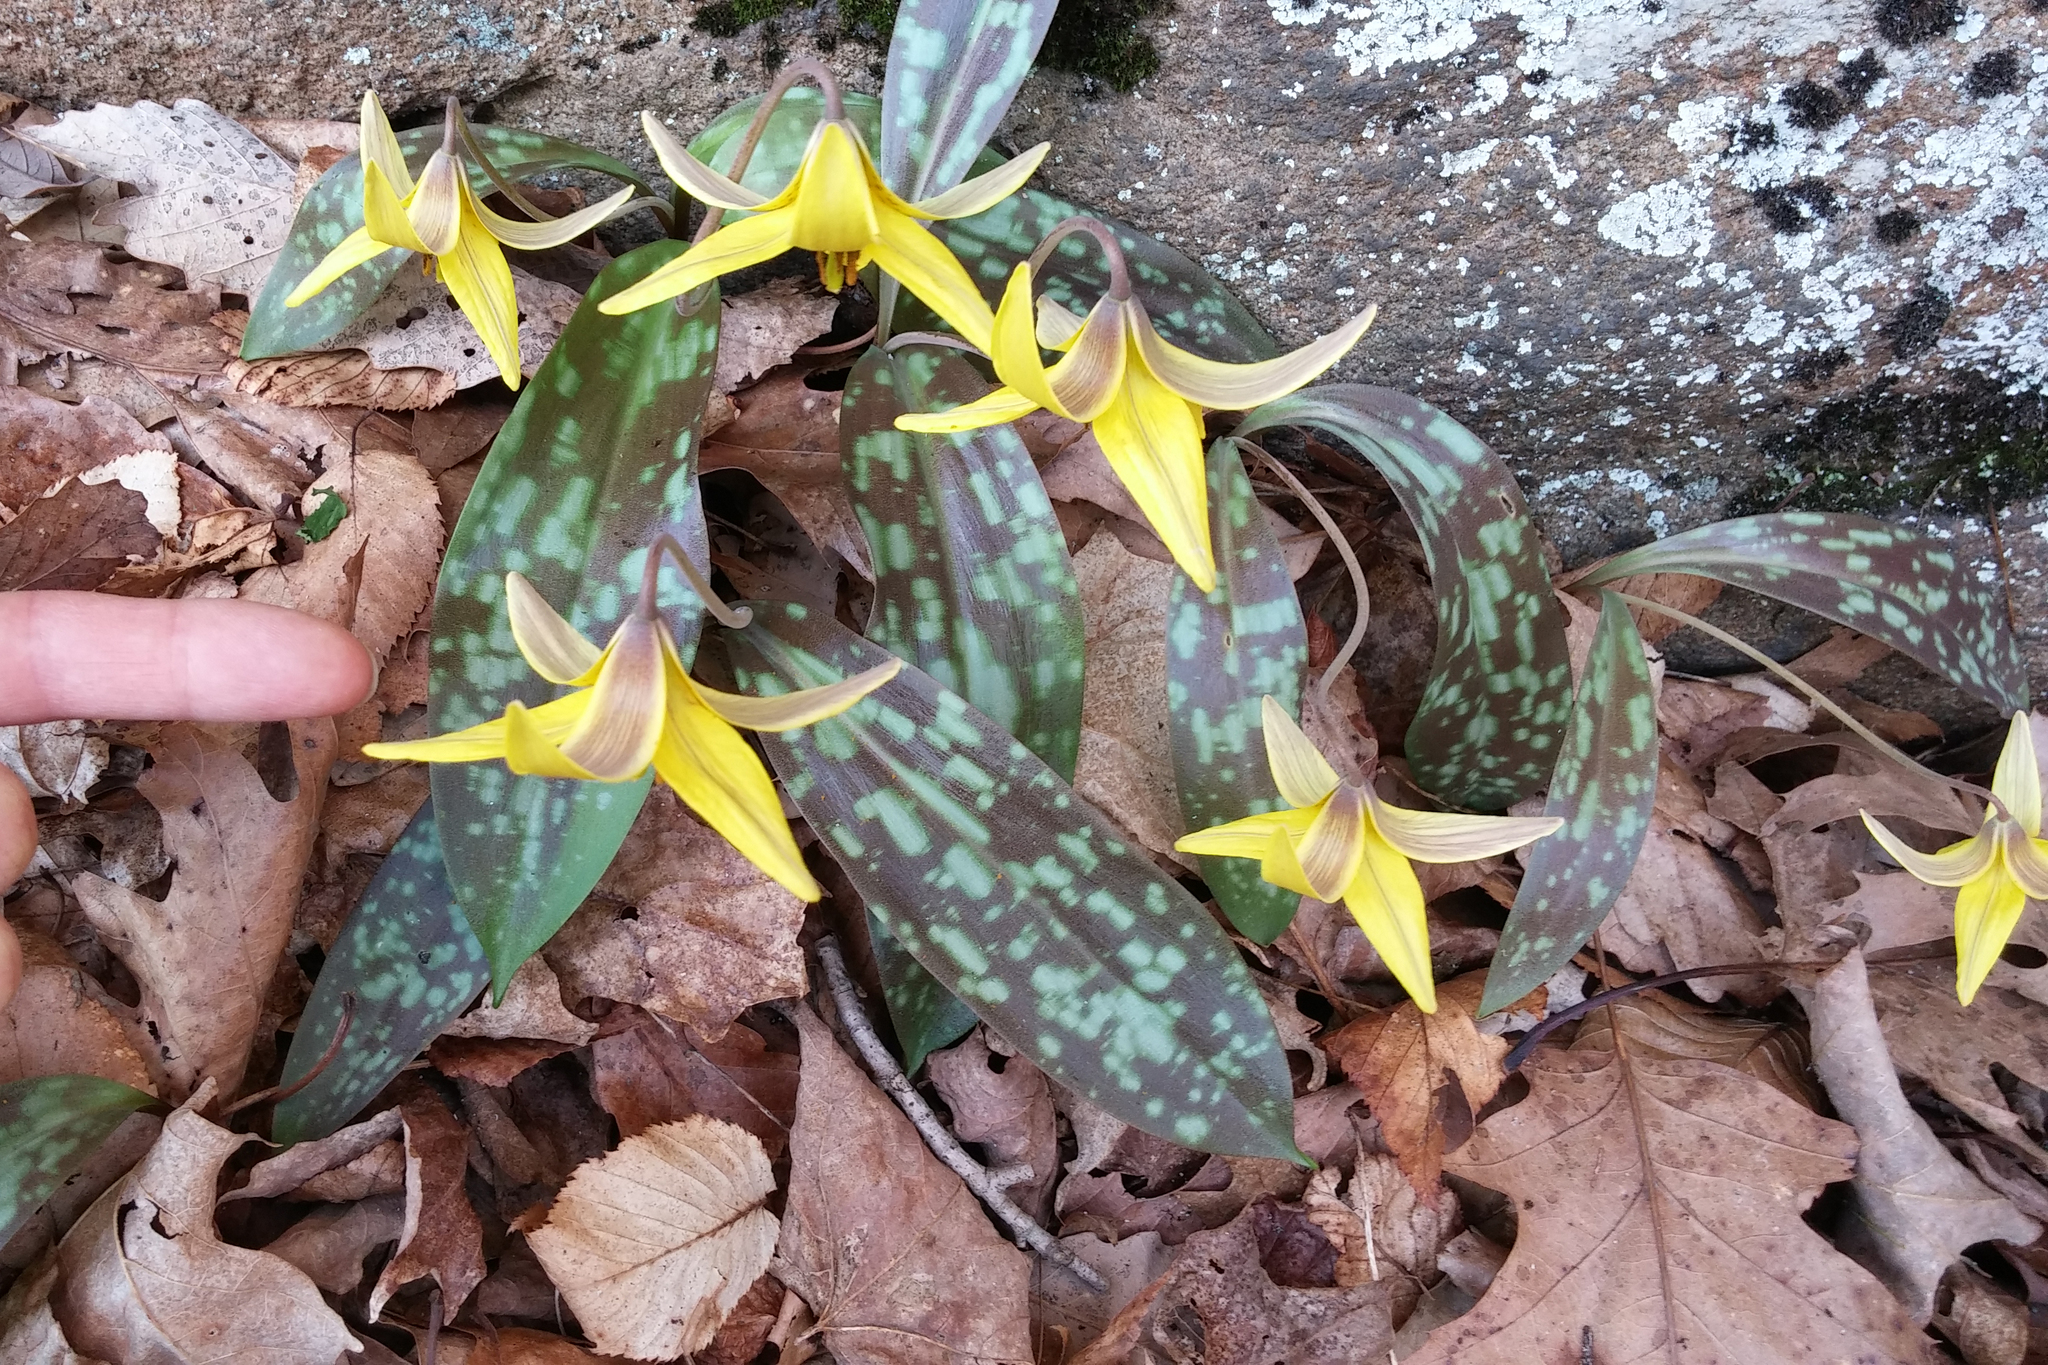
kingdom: Plantae
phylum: Tracheophyta
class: Liliopsida
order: Liliales
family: Liliaceae
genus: Erythronium
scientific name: Erythronium americanum
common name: Yellow adder's-tongue
